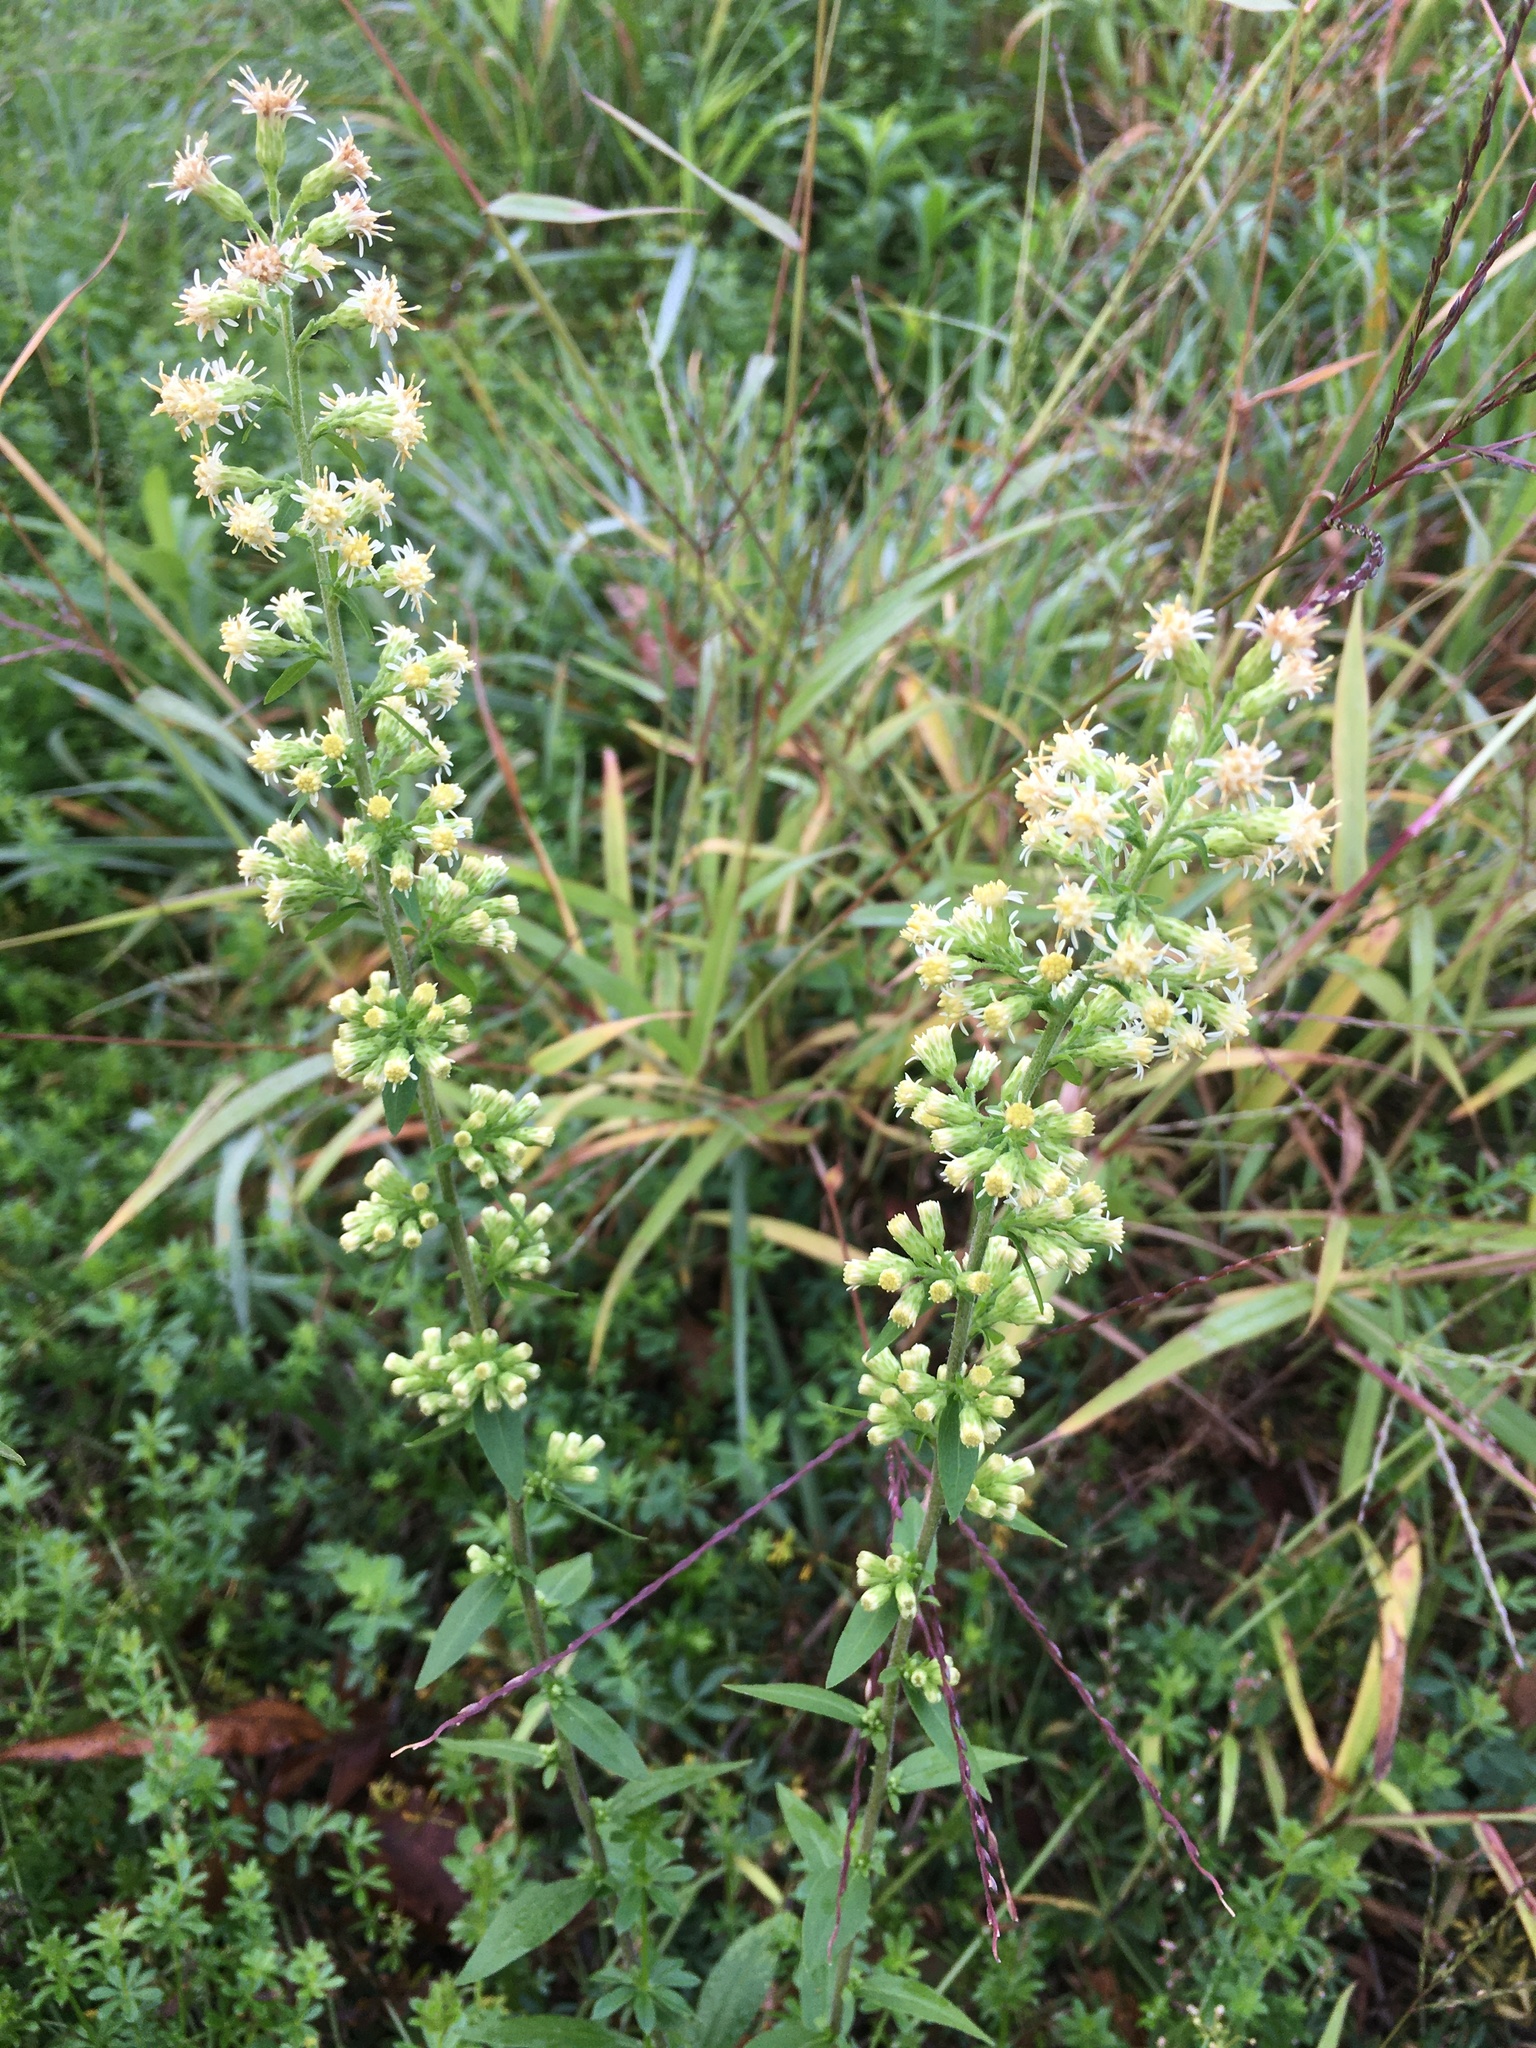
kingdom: Plantae
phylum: Tracheophyta
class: Magnoliopsida
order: Asterales
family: Asteraceae
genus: Solidago
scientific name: Solidago bicolor
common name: Silverrod
